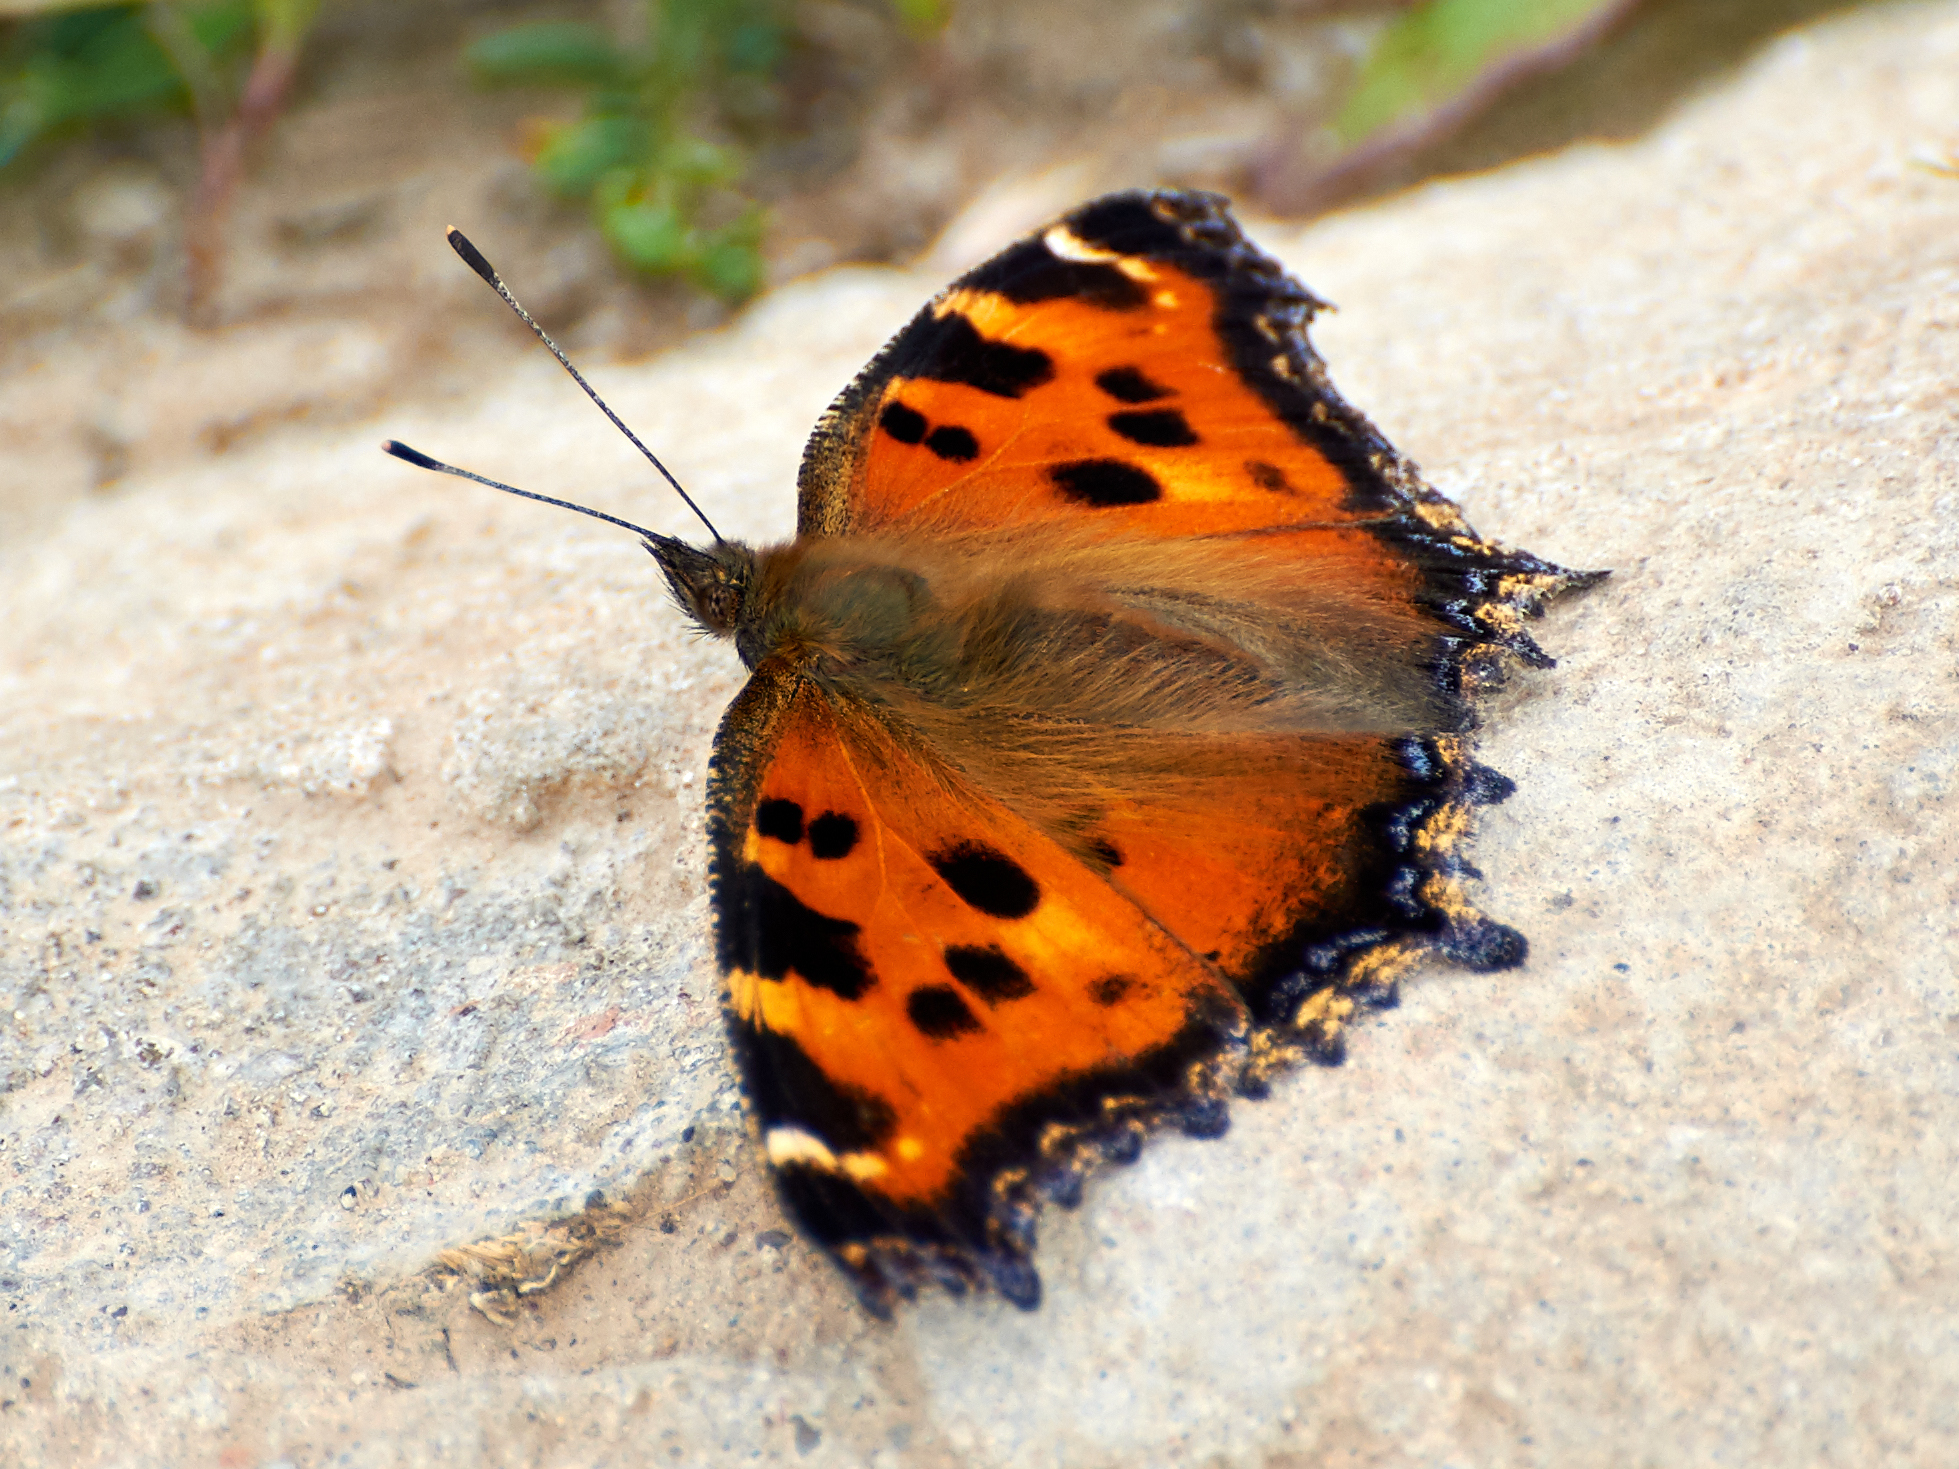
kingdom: Animalia
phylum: Arthropoda
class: Insecta
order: Lepidoptera
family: Nymphalidae
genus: Nymphalis
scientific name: Nymphalis xanthomelas
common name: Scarce tortoiseshell
